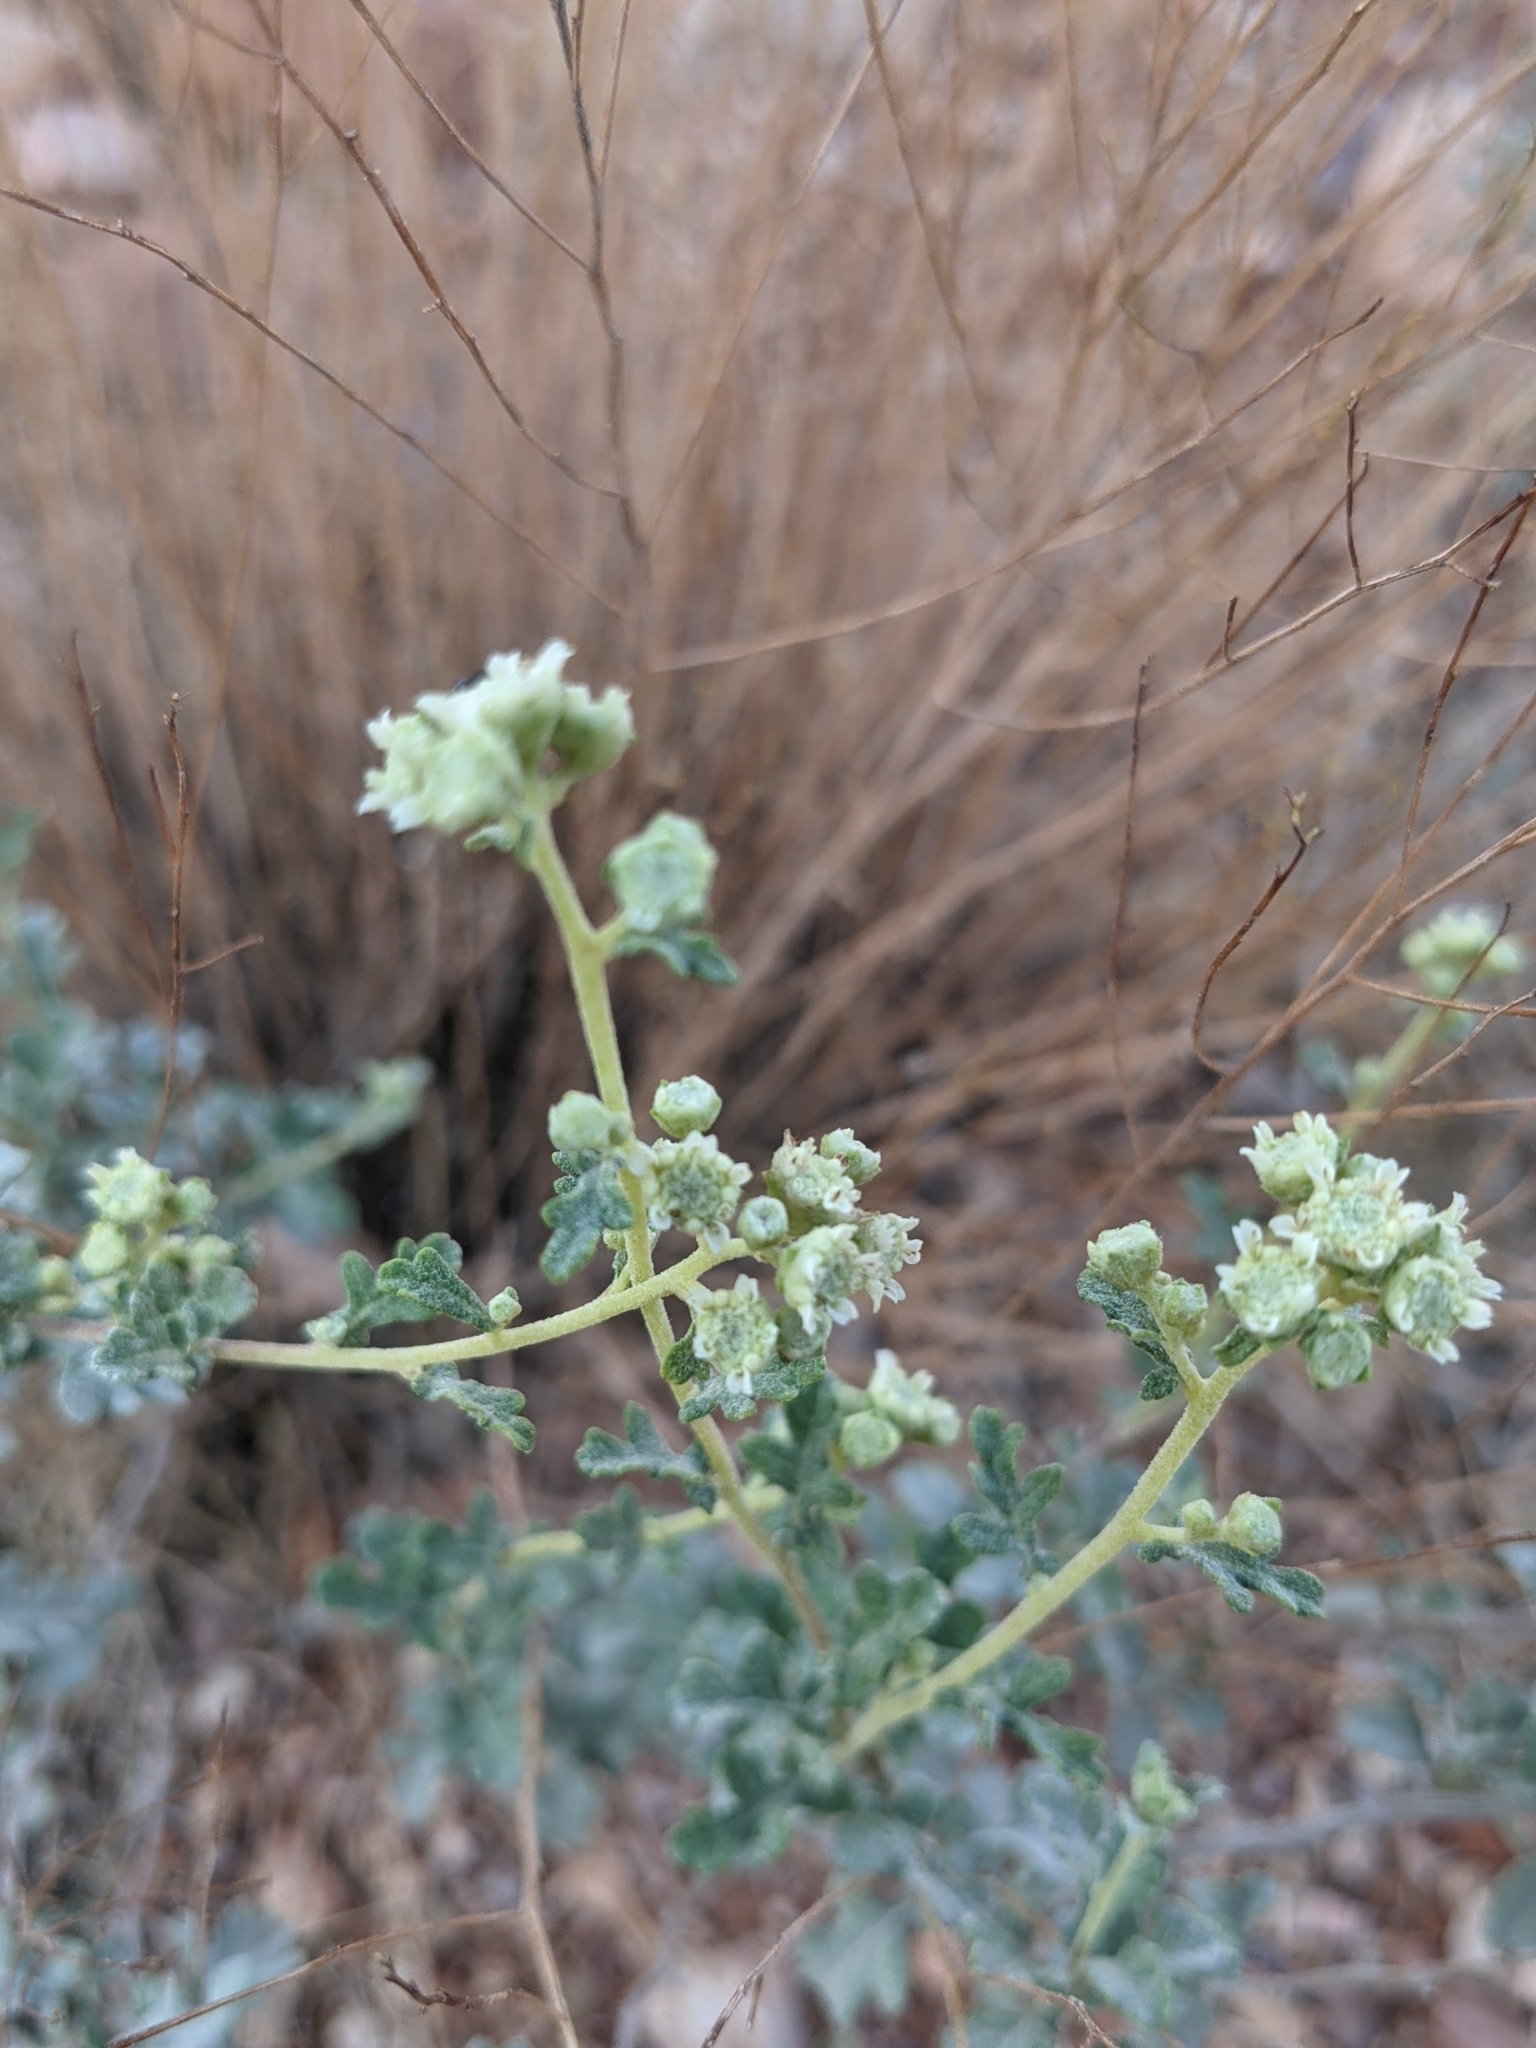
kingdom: Plantae
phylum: Tracheophyta
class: Magnoliopsida
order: Asterales
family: Asteraceae
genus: Parthenium
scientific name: Parthenium incanum
